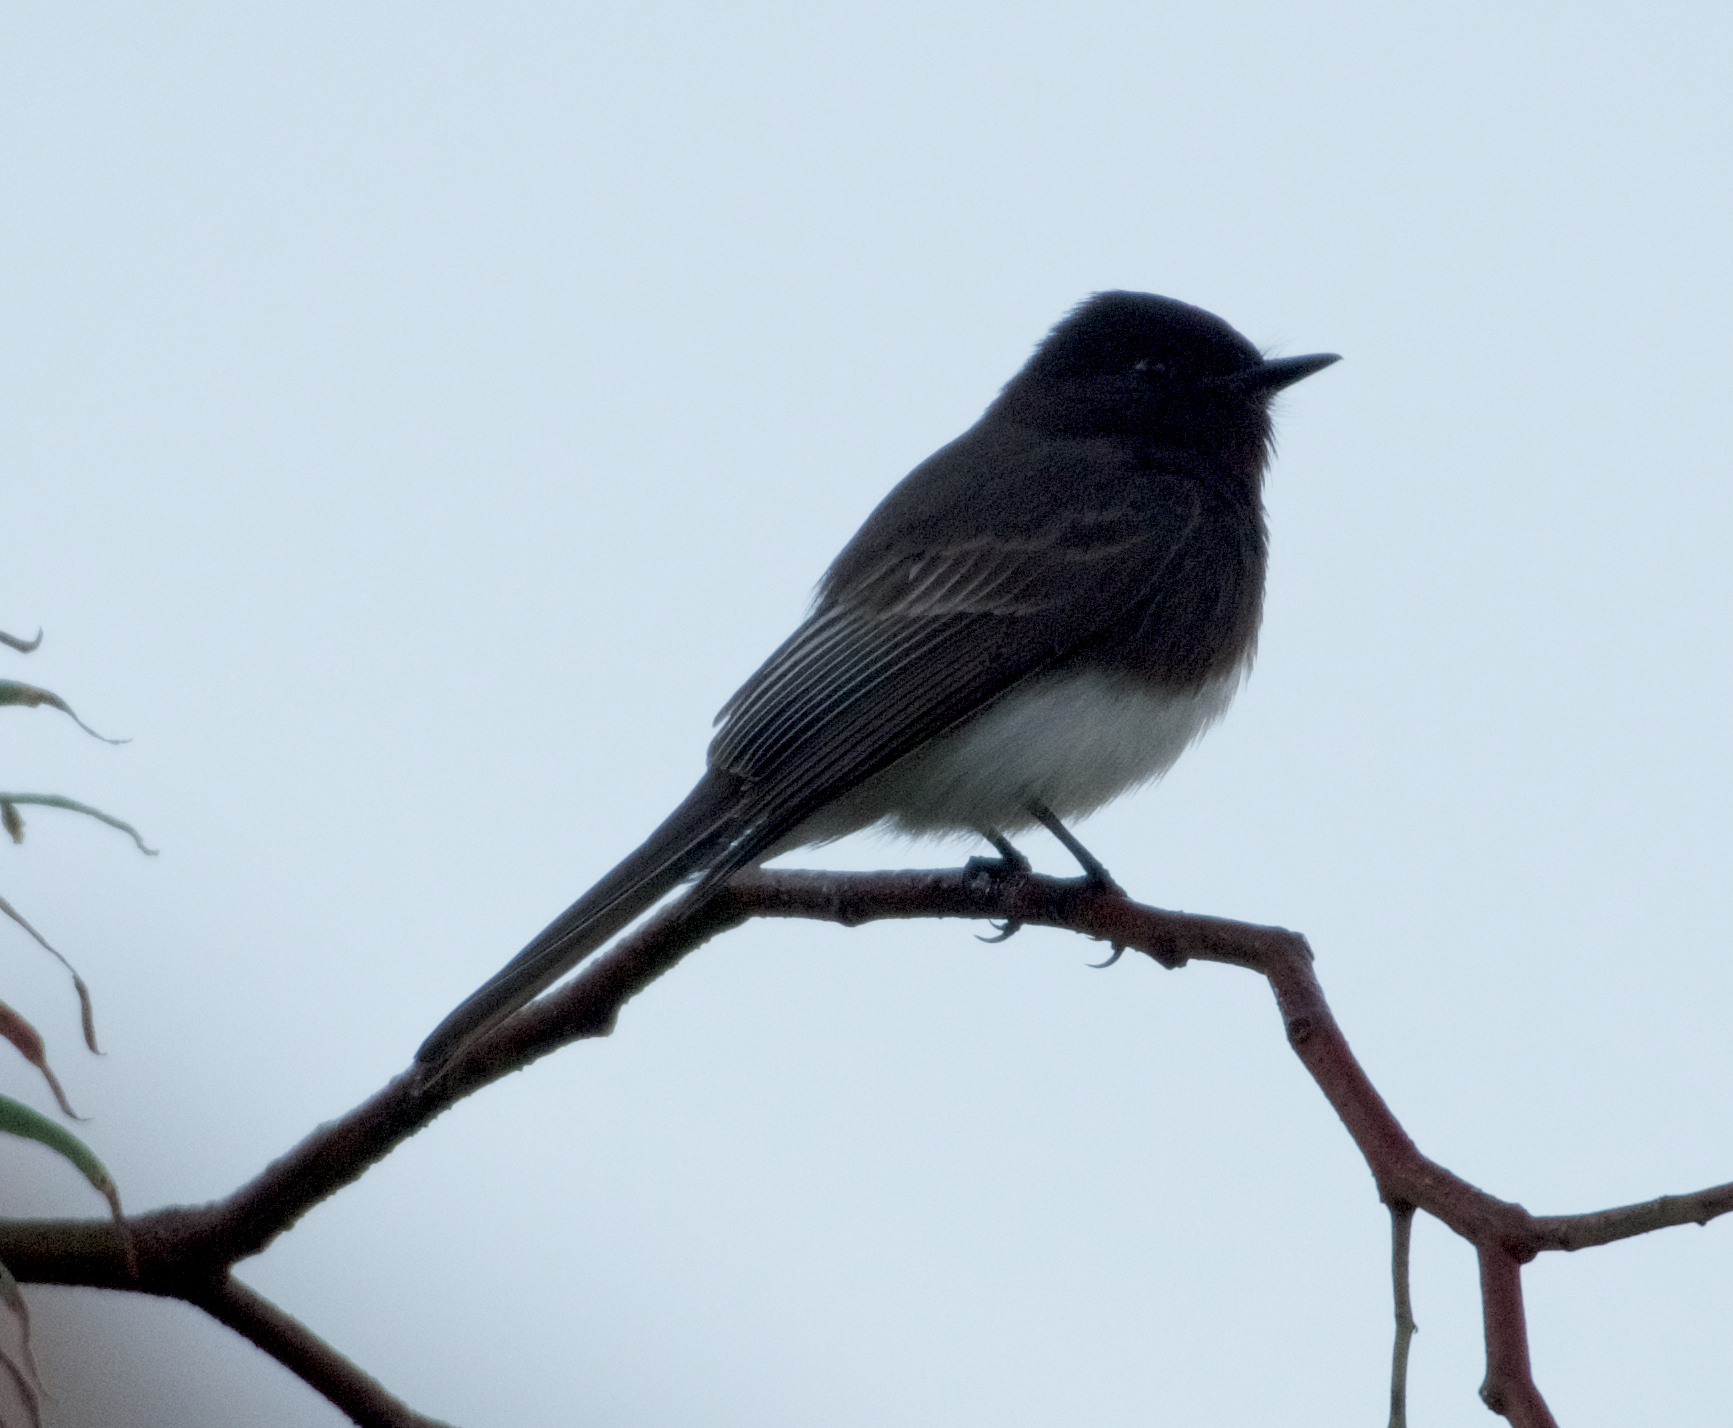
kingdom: Animalia
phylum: Chordata
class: Aves
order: Passeriformes
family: Tyrannidae
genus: Sayornis
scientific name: Sayornis nigricans
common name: Black phoebe
